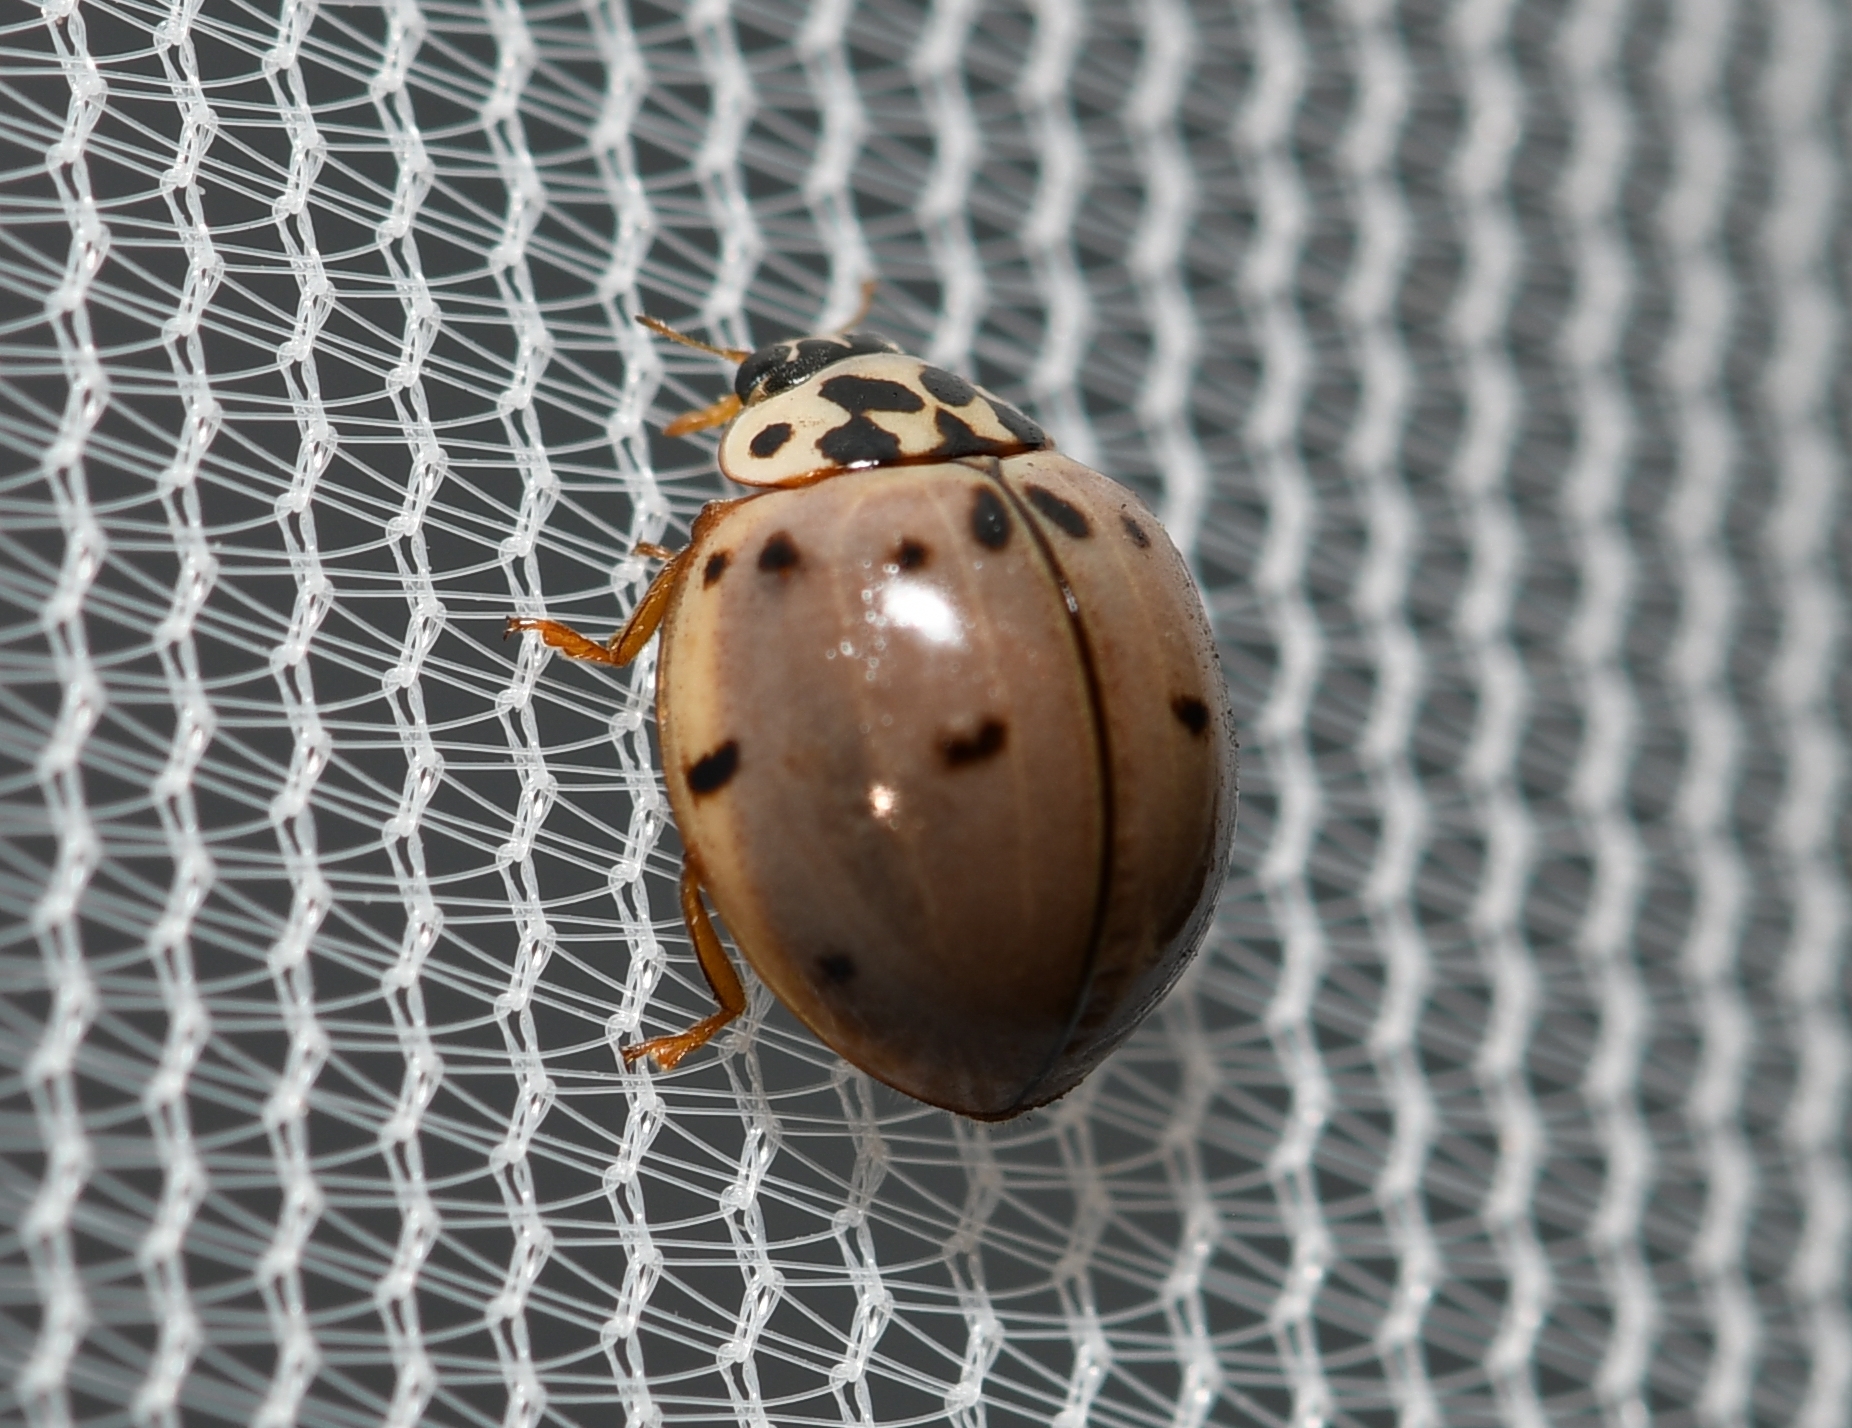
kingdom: Animalia
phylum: Arthropoda
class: Insecta
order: Coleoptera
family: Coccinellidae
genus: Olla
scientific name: Olla v-nigrum
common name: Ashy gray lady beetle
